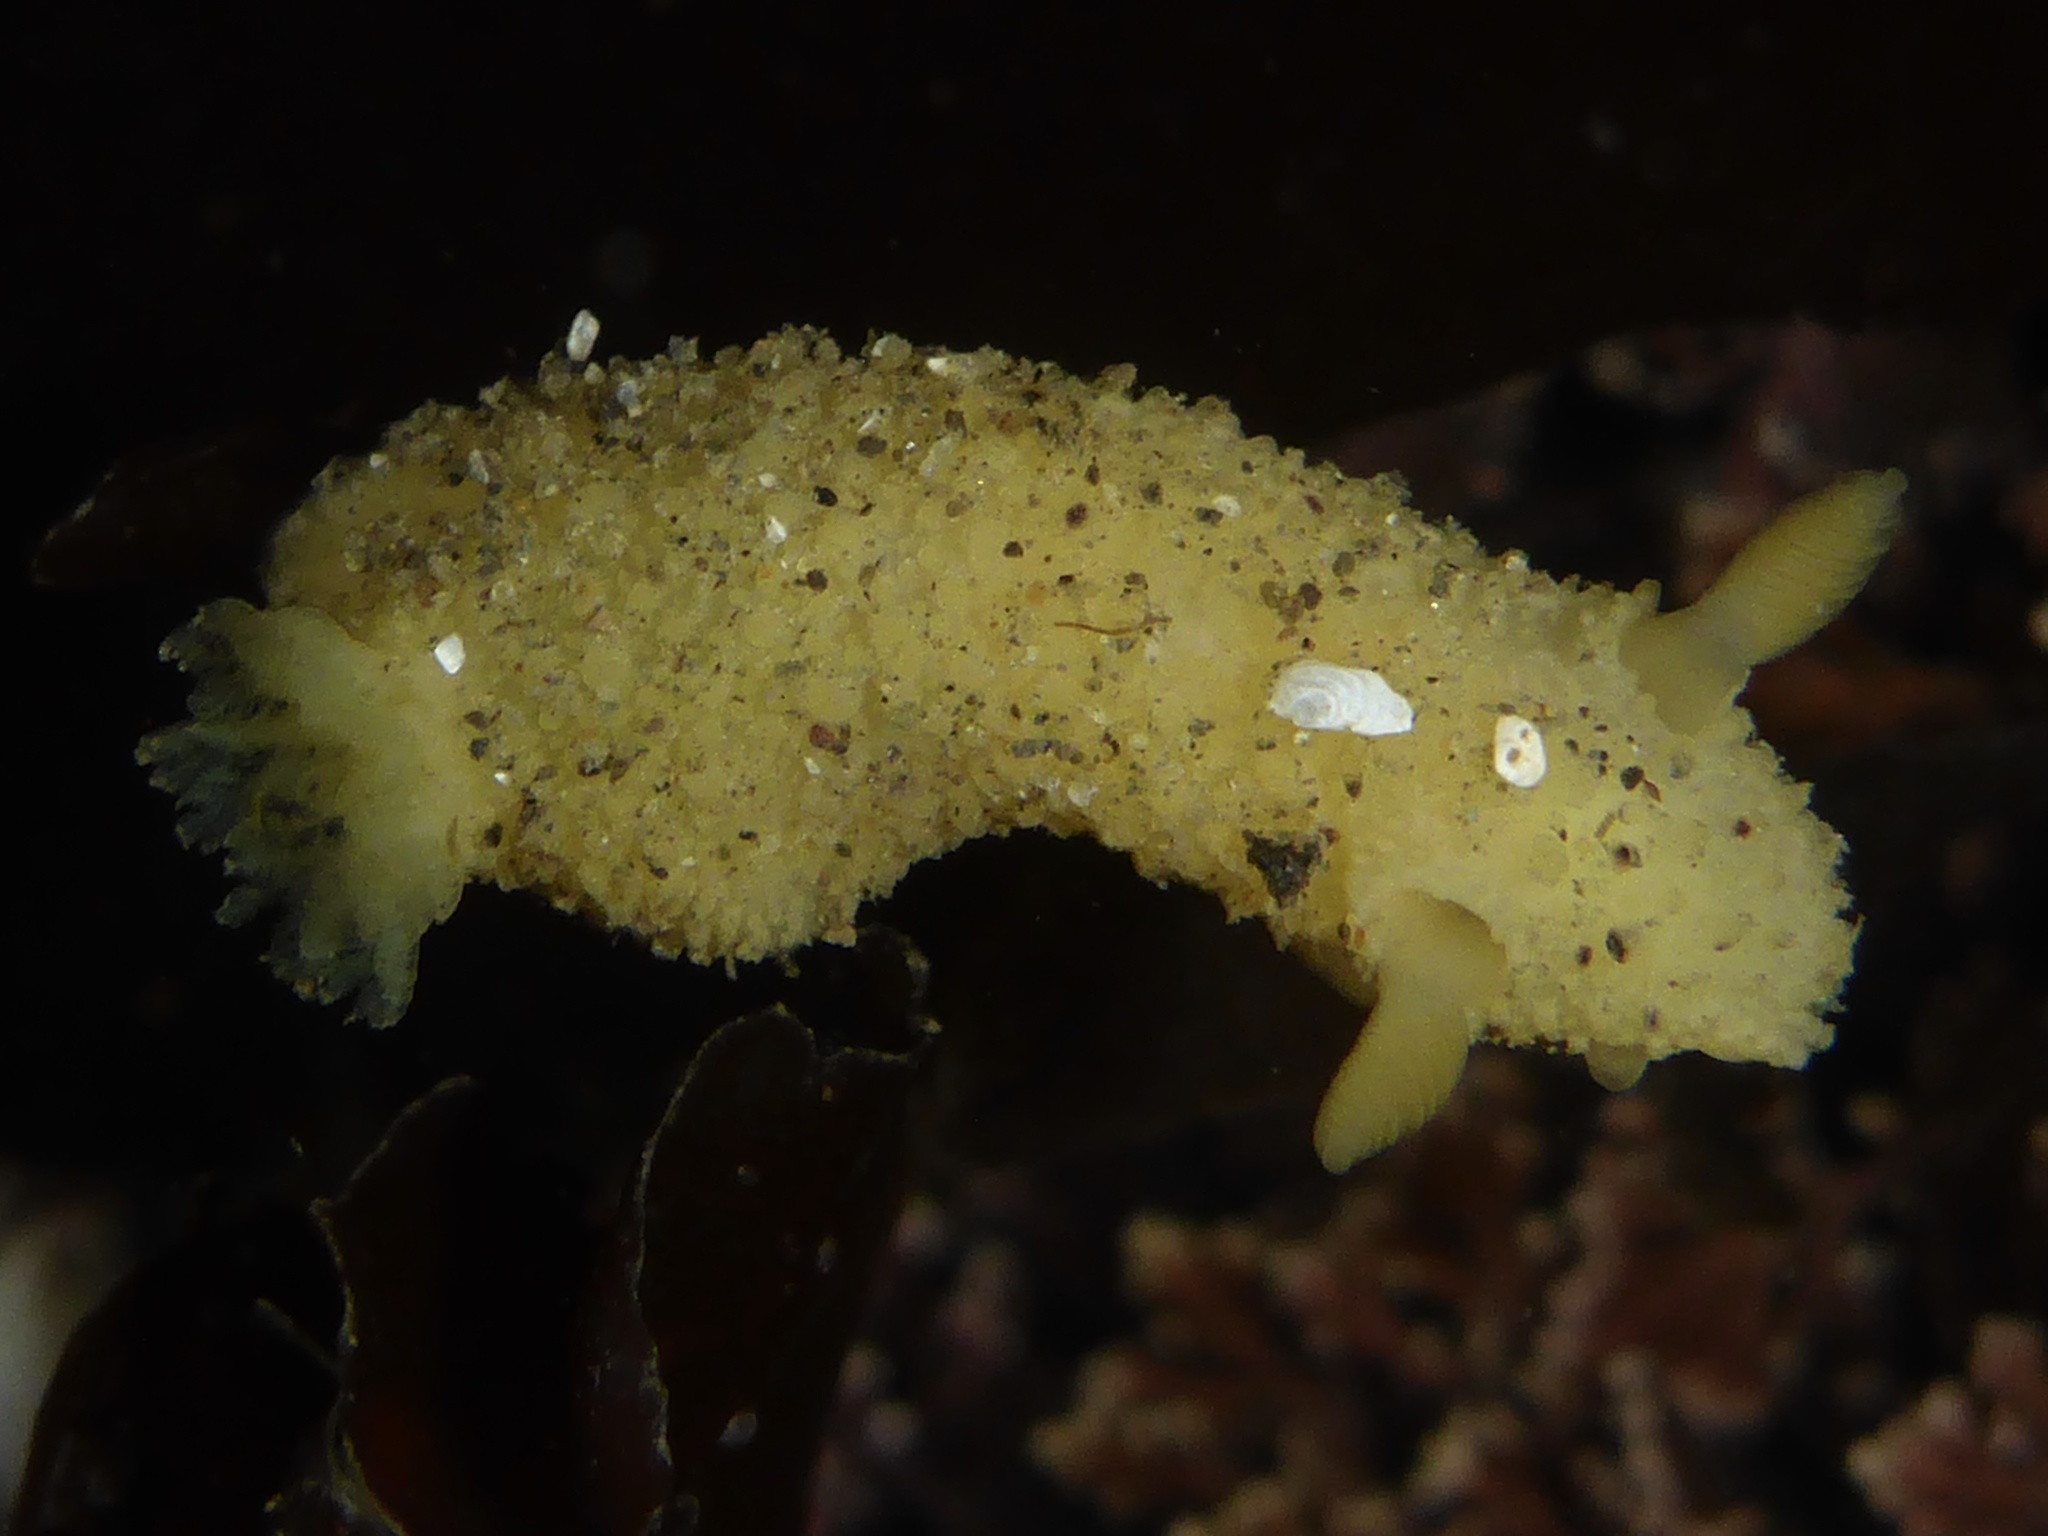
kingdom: Animalia
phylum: Mollusca
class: Gastropoda
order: Nudibranchia
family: Dorididae
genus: Doris
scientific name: Doris montereyensis
